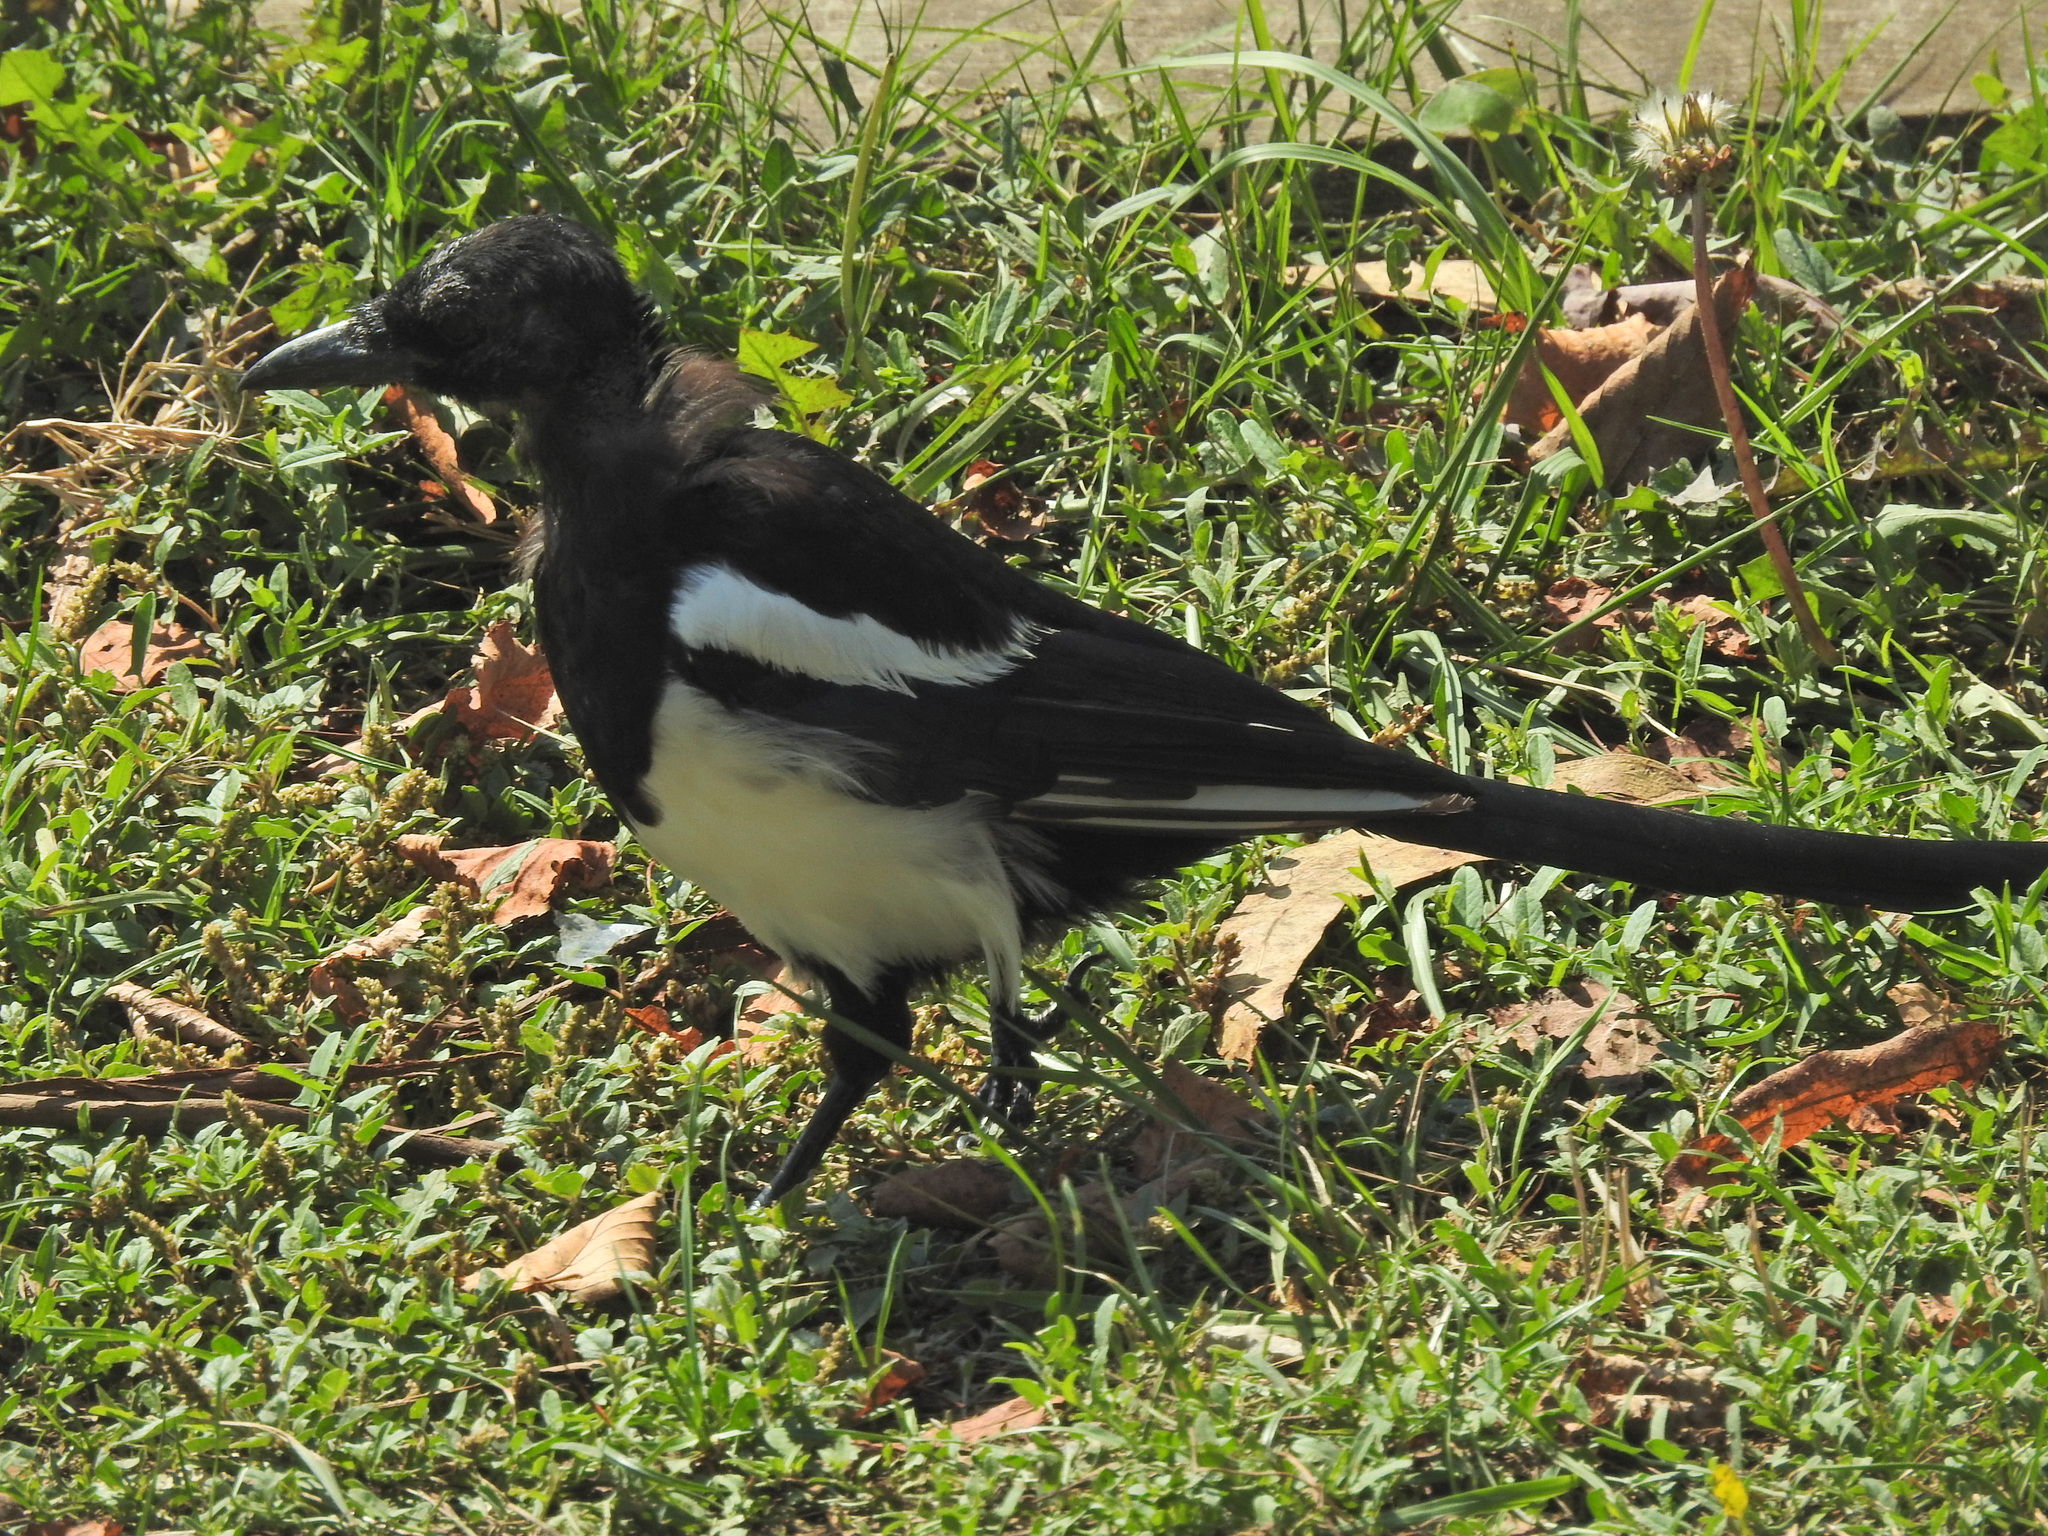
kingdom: Animalia
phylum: Chordata
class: Aves
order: Passeriformes
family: Corvidae
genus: Pica
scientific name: Pica pica
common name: Eurasian magpie
